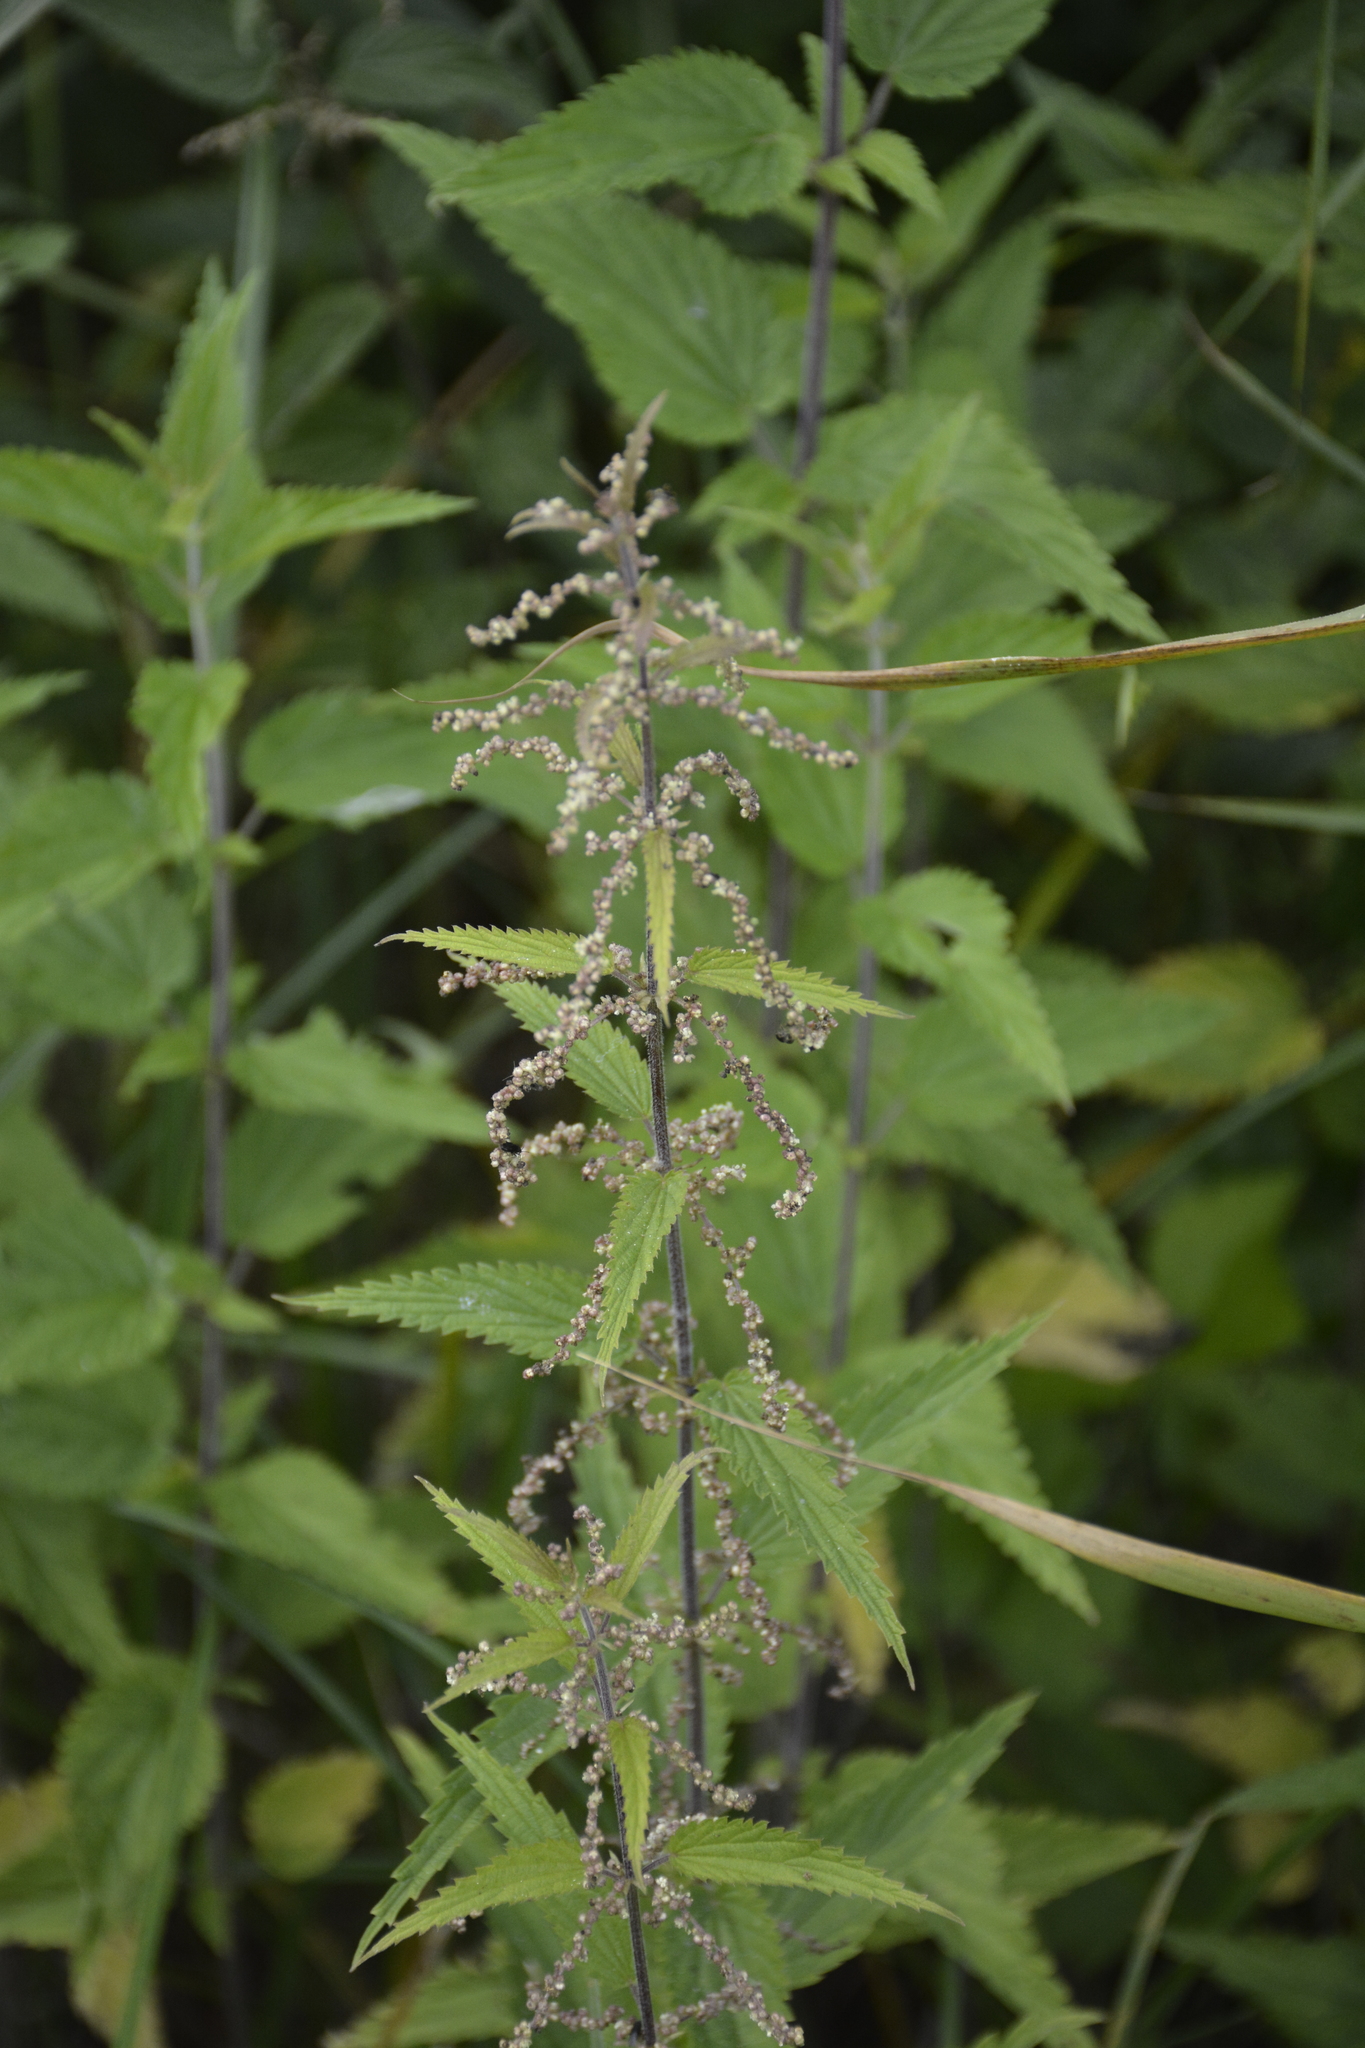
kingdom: Plantae
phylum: Tracheophyta
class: Magnoliopsida
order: Rosales
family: Urticaceae
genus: Urtica
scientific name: Urtica dioica
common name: Common nettle
